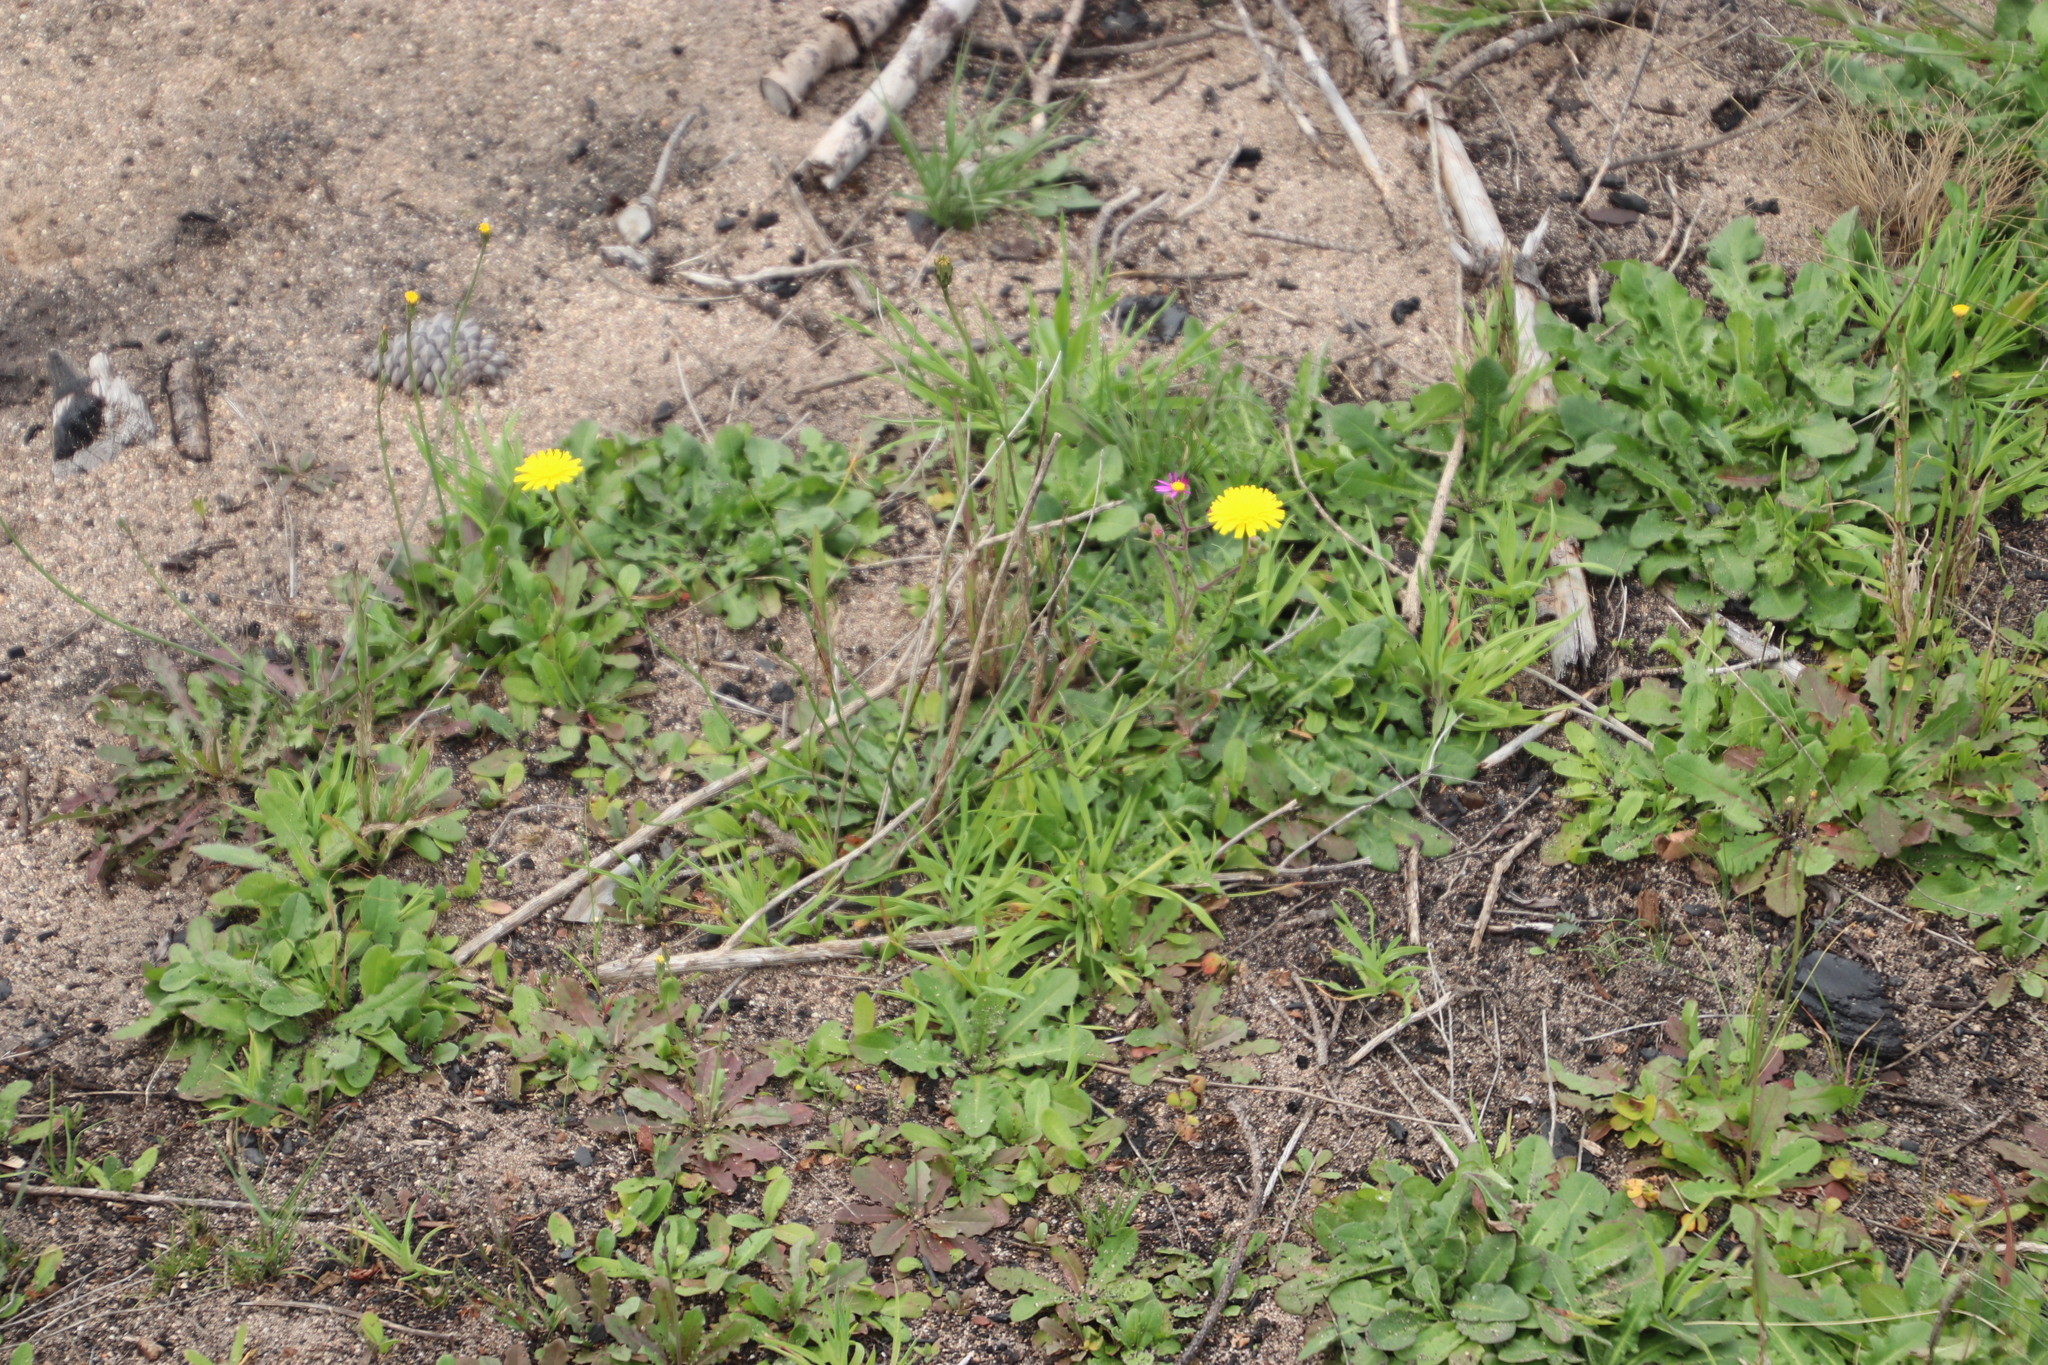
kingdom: Plantae
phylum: Tracheophyta
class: Magnoliopsida
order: Asterales
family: Asteraceae
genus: Hypochaeris
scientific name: Hypochaeris radicata
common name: Flatweed
